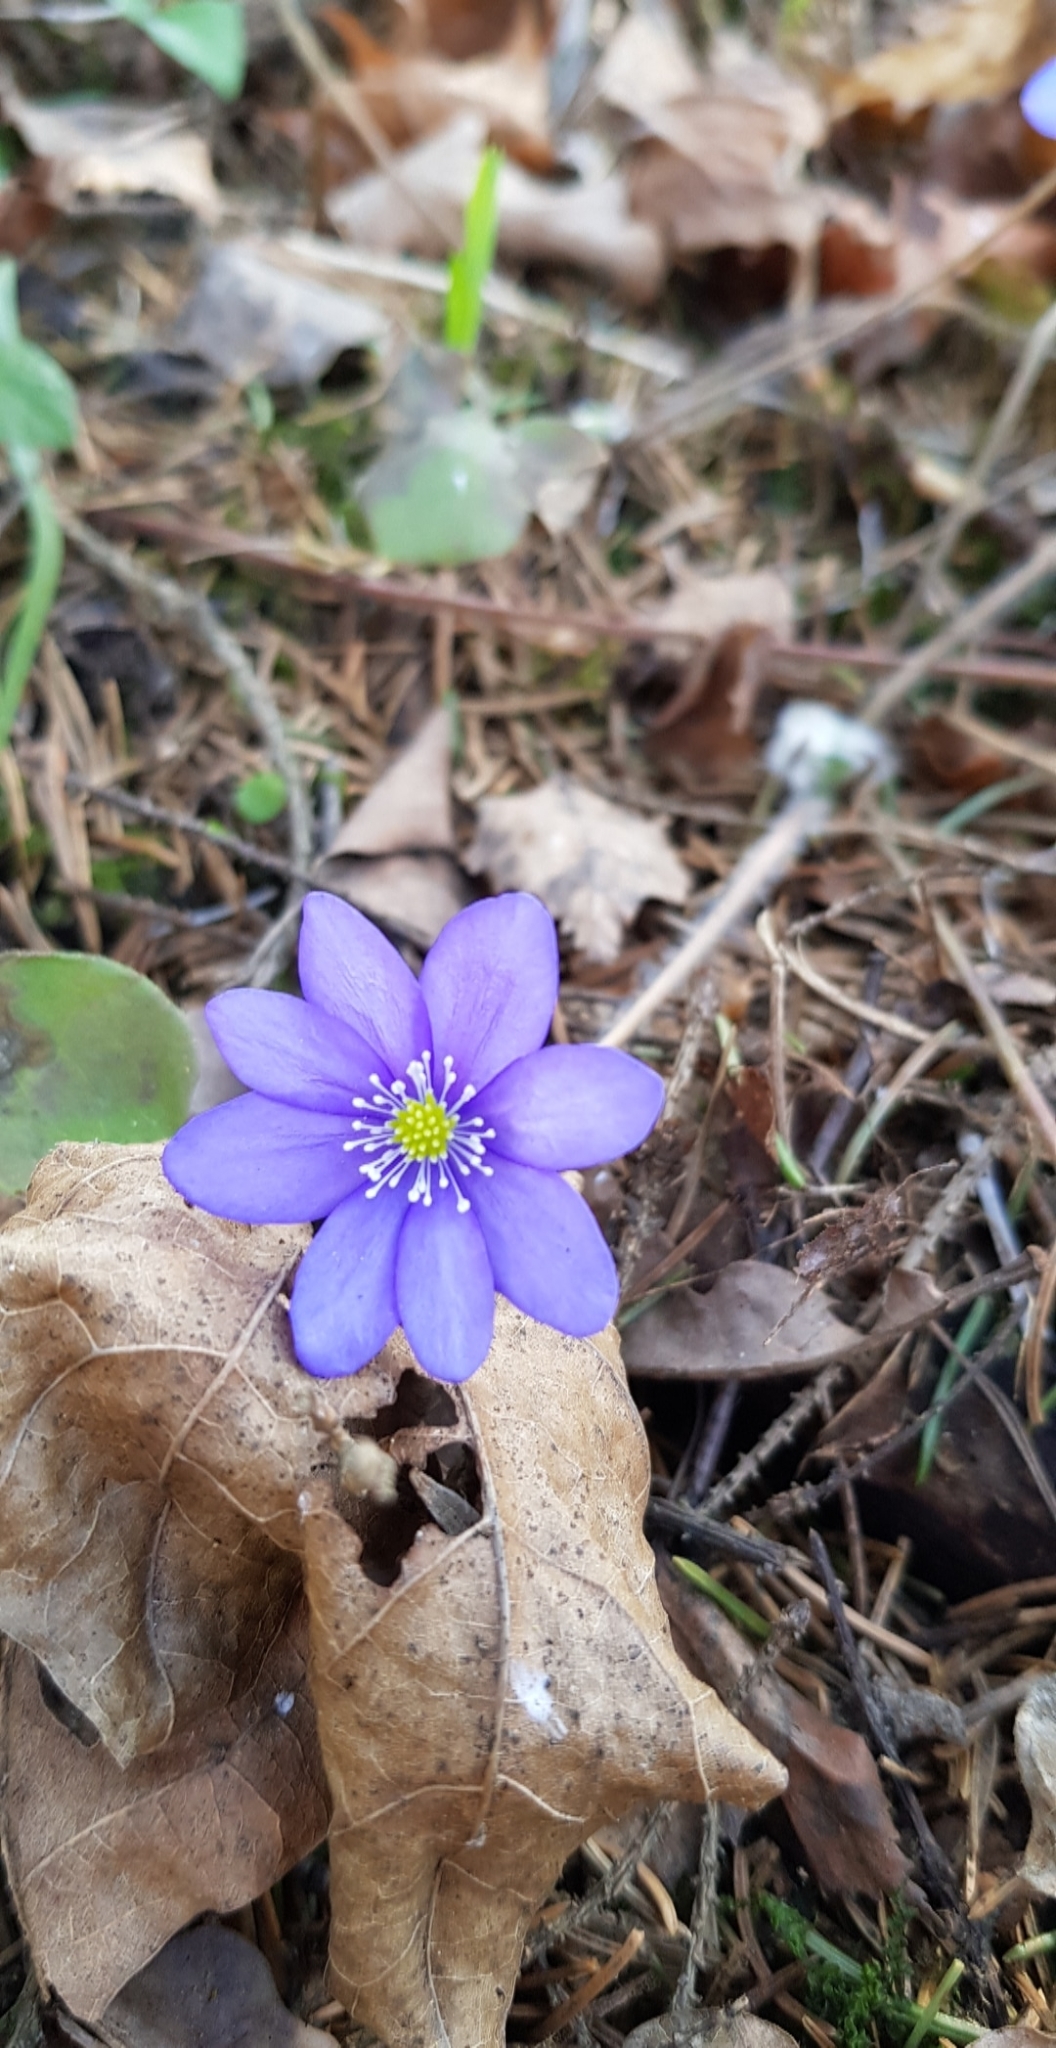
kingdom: Plantae
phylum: Tracheophyta
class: Magnoliopsida
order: Ranunculales
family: Ranunculaceae
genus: Hepatica
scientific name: Hepatica nobilis
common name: Liverleaf
